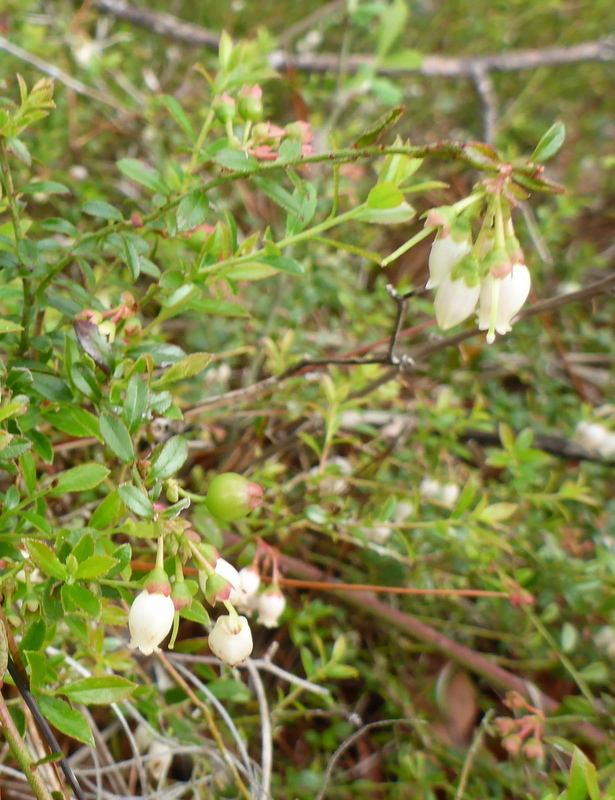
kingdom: Plantae
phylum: Tracheophyta
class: Magnoliopsida
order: Ericales
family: Ericaceae
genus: Vaccinium
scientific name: Vaccinium myrsinites
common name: Evergreen blueberry
